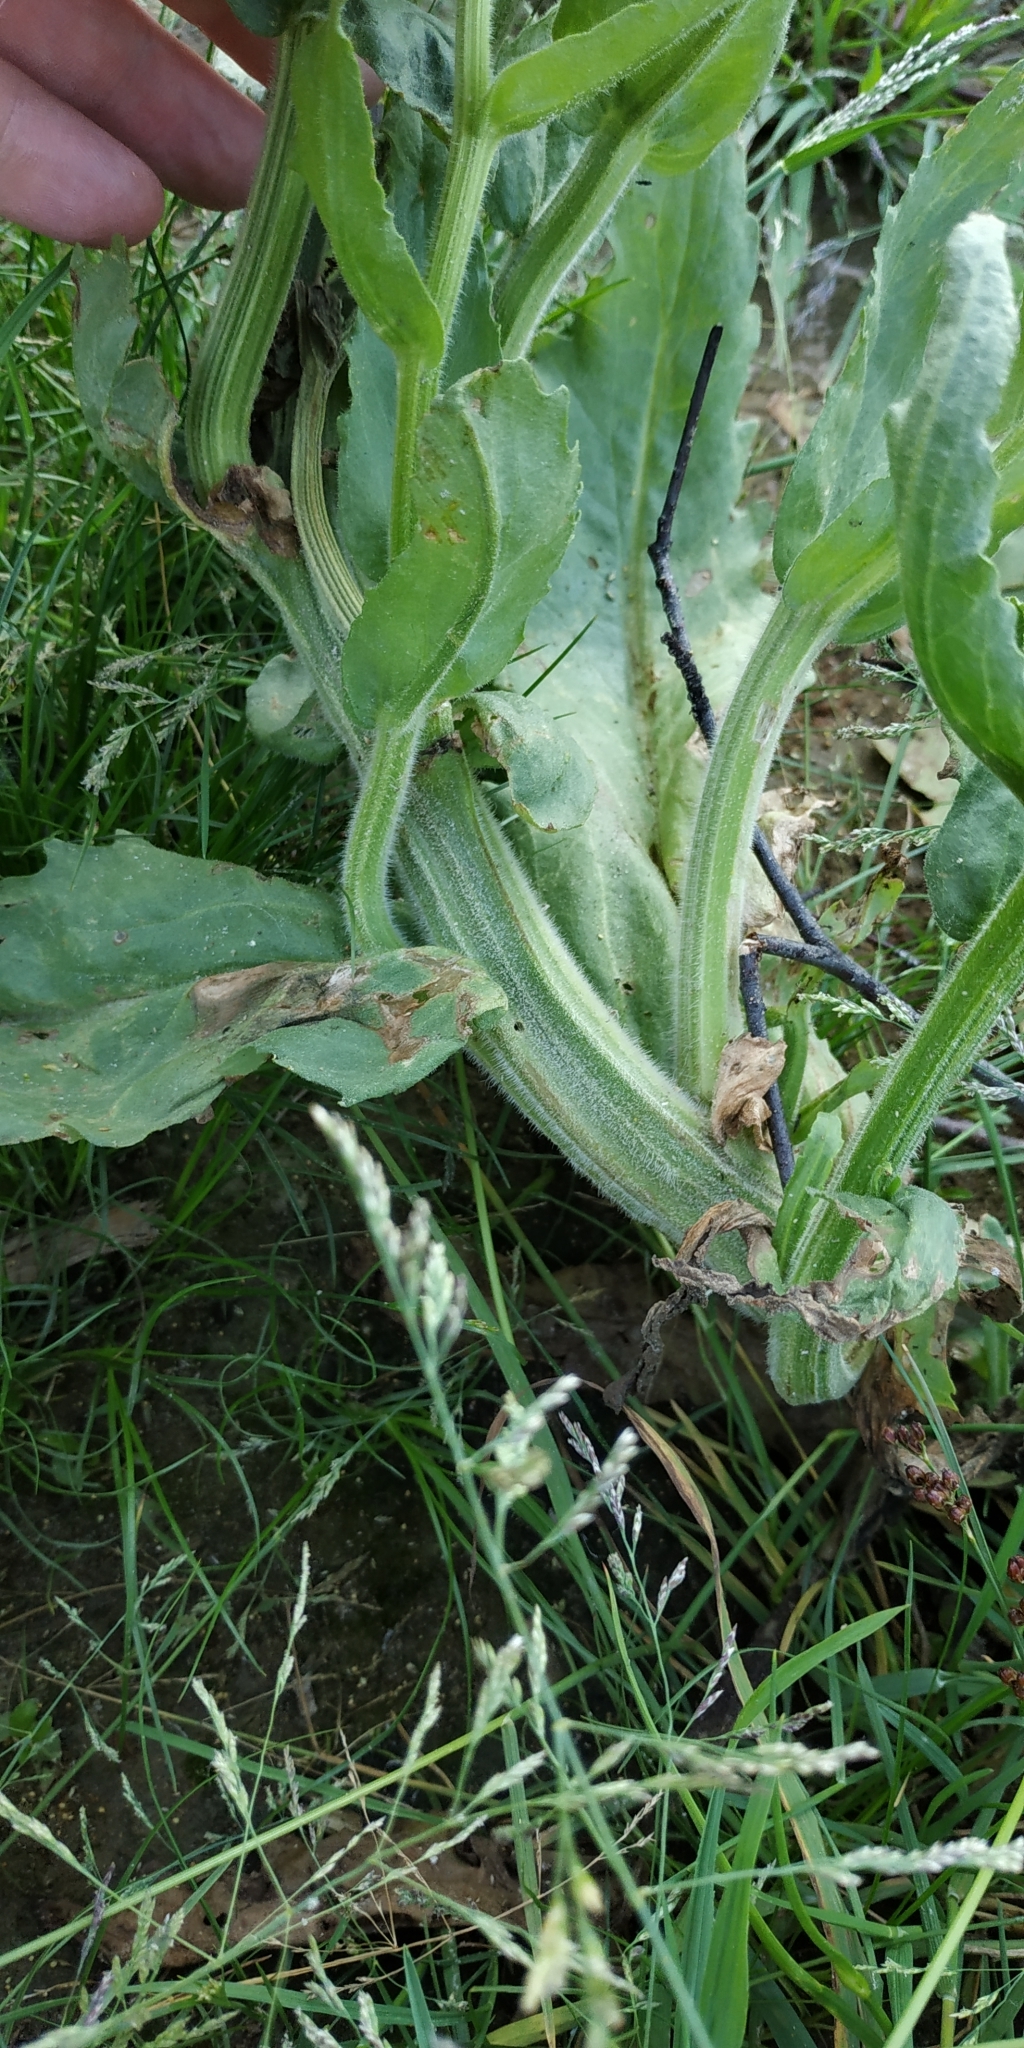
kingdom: Plantae
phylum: Tracheophyta
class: Magnoliopsida
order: Asterales
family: Asteraceae
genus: Tephroseris
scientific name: Tephroseris palustris
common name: Marsh fleawort
